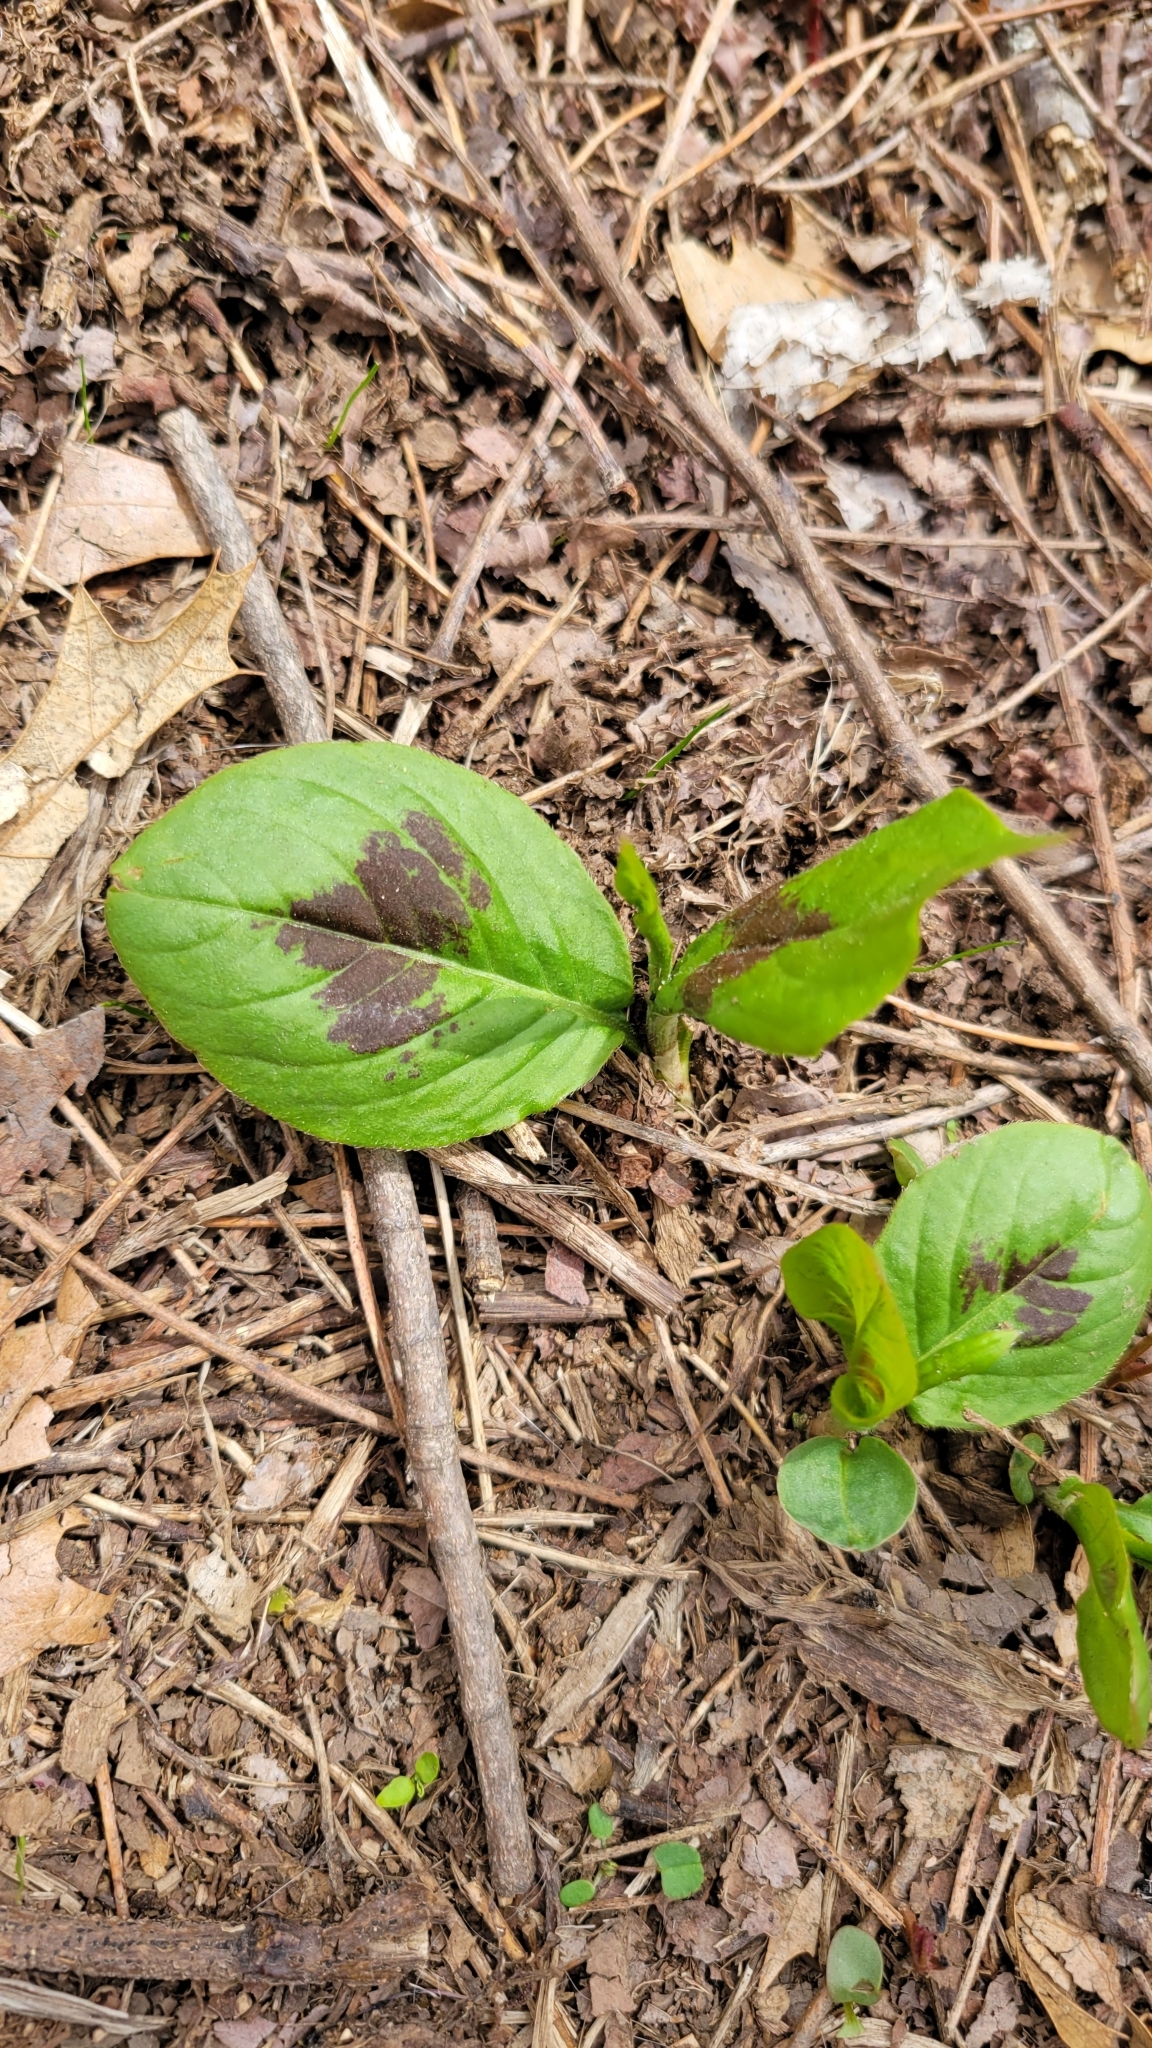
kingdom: Plantae
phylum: Tracheophyta
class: Magnoliopsida
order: Caryophyllales
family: Polygonaceae
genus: Persicaria
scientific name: Persicaria virginiana
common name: Jumpseed
